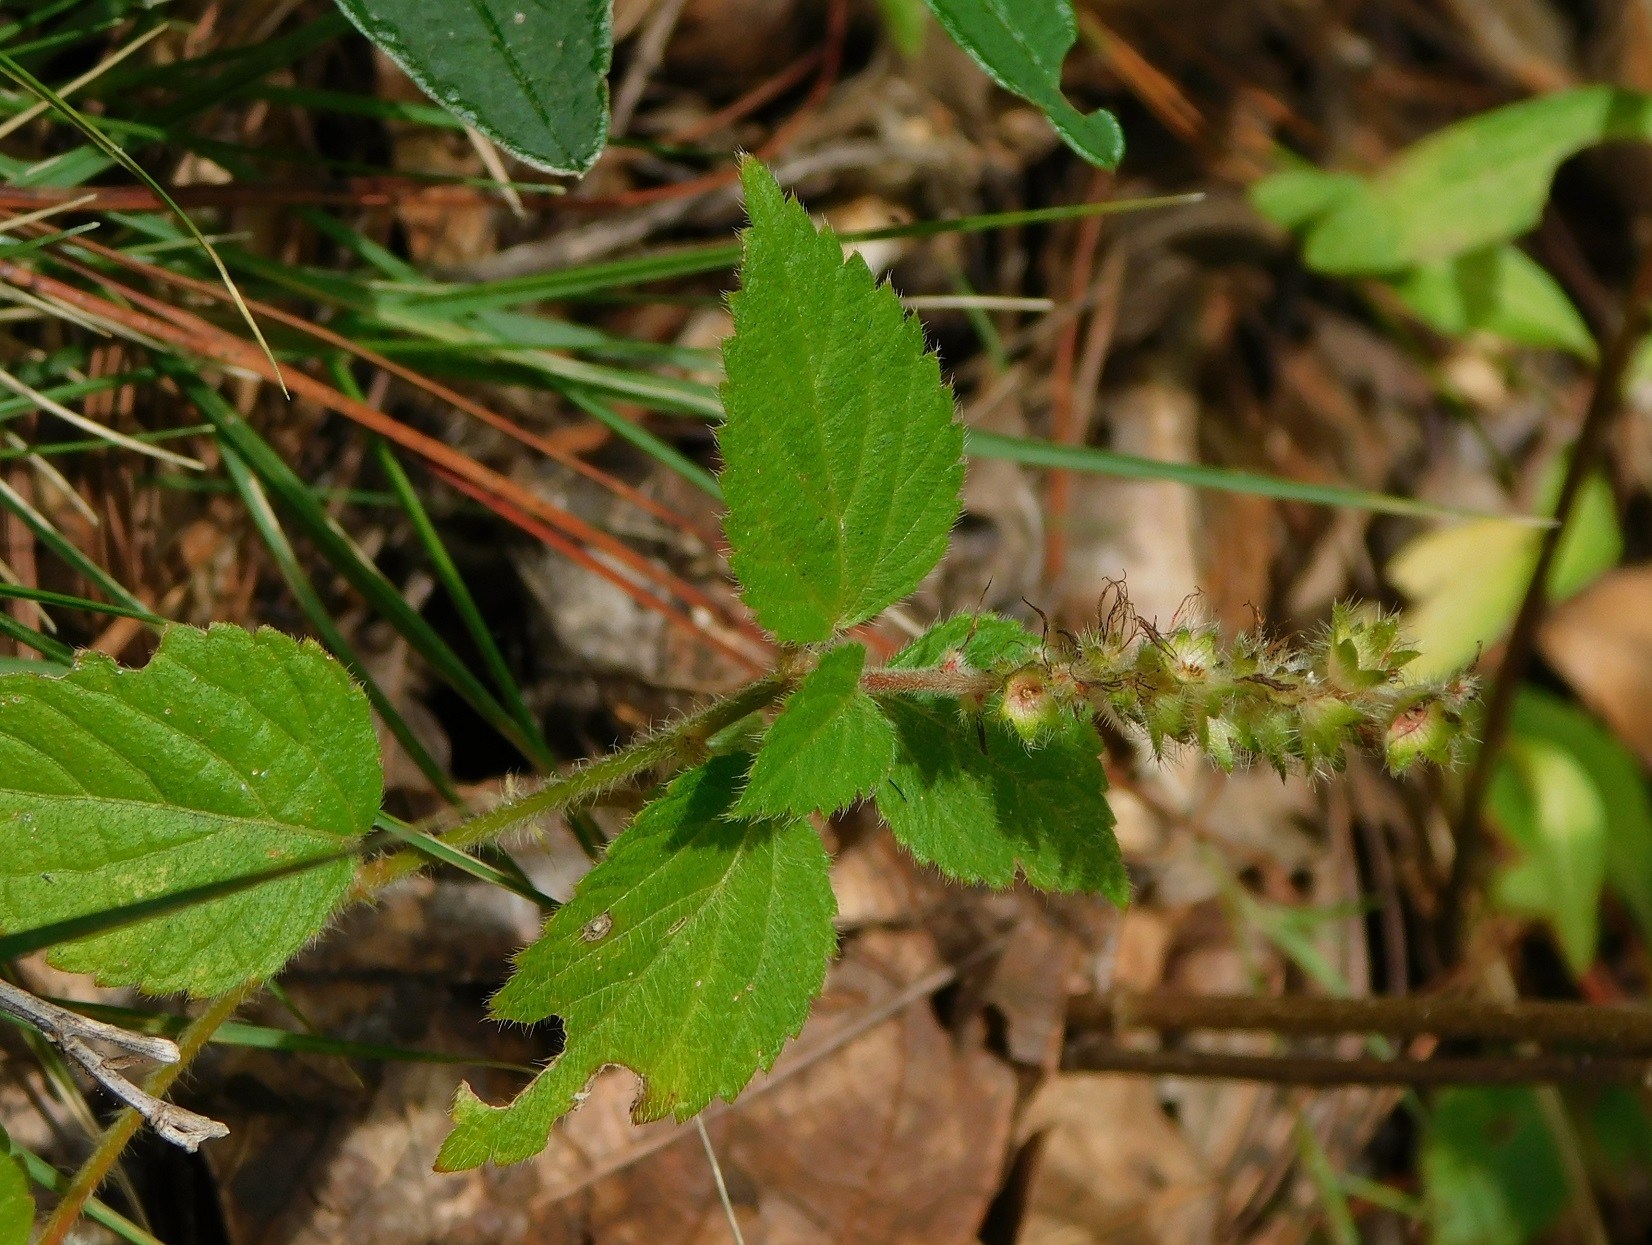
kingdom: Plantae
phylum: Tracheophyta
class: Magnoliopsida
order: Malpighiales
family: Euphorbiaceae
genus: Acalypha
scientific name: Acalypha phleoides
